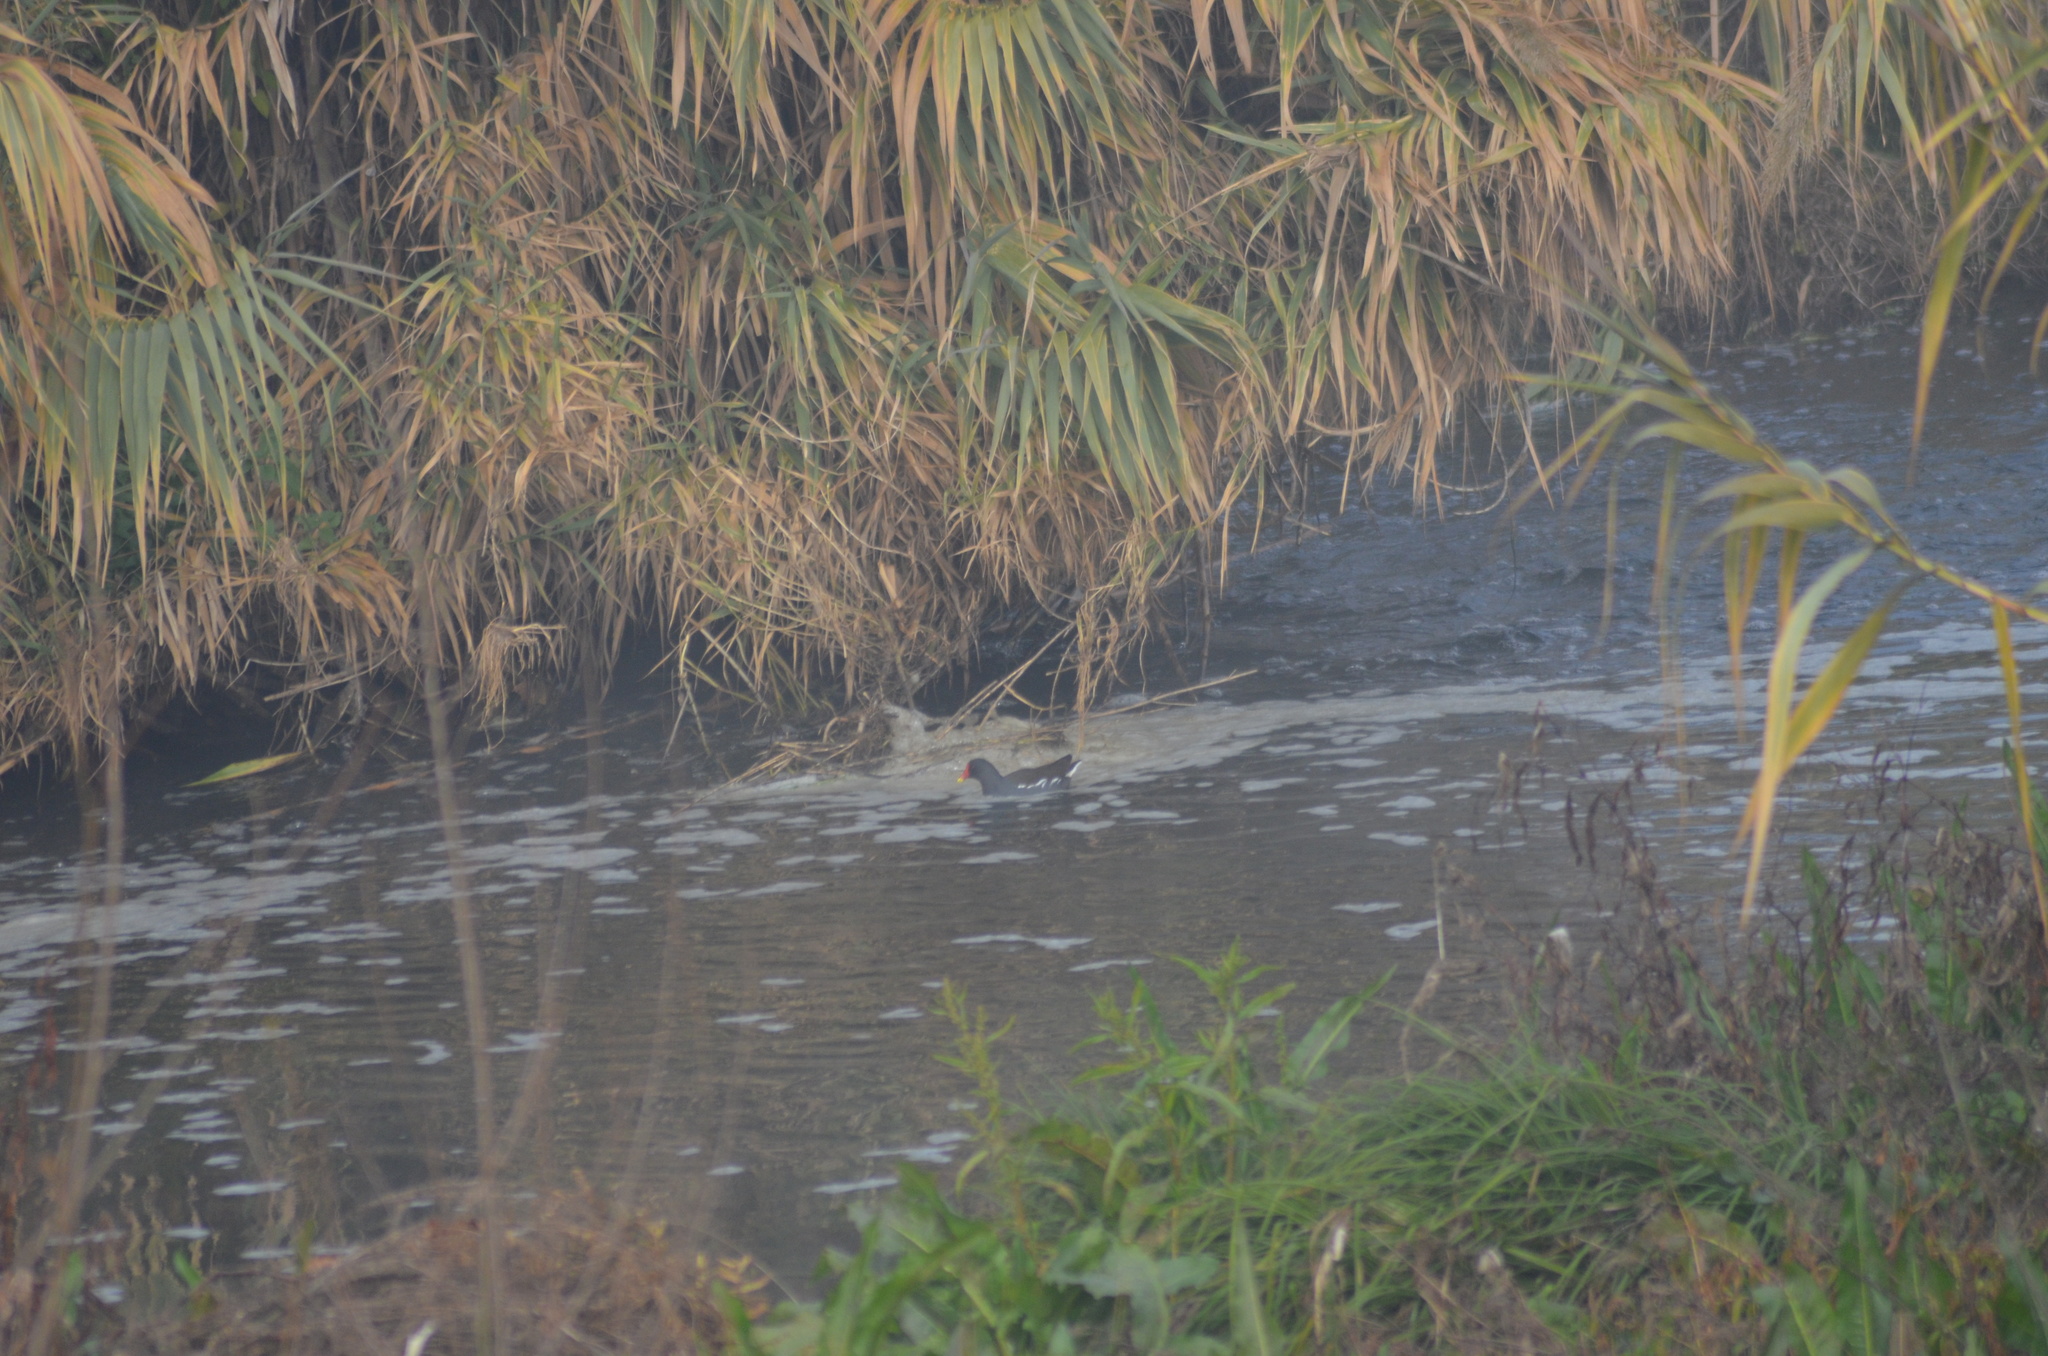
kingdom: Animalia
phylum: Chordata
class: Aves
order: Gruiformes
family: Rallidae
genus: Gallinula
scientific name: Gallinula chloropus
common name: Common moorhen
